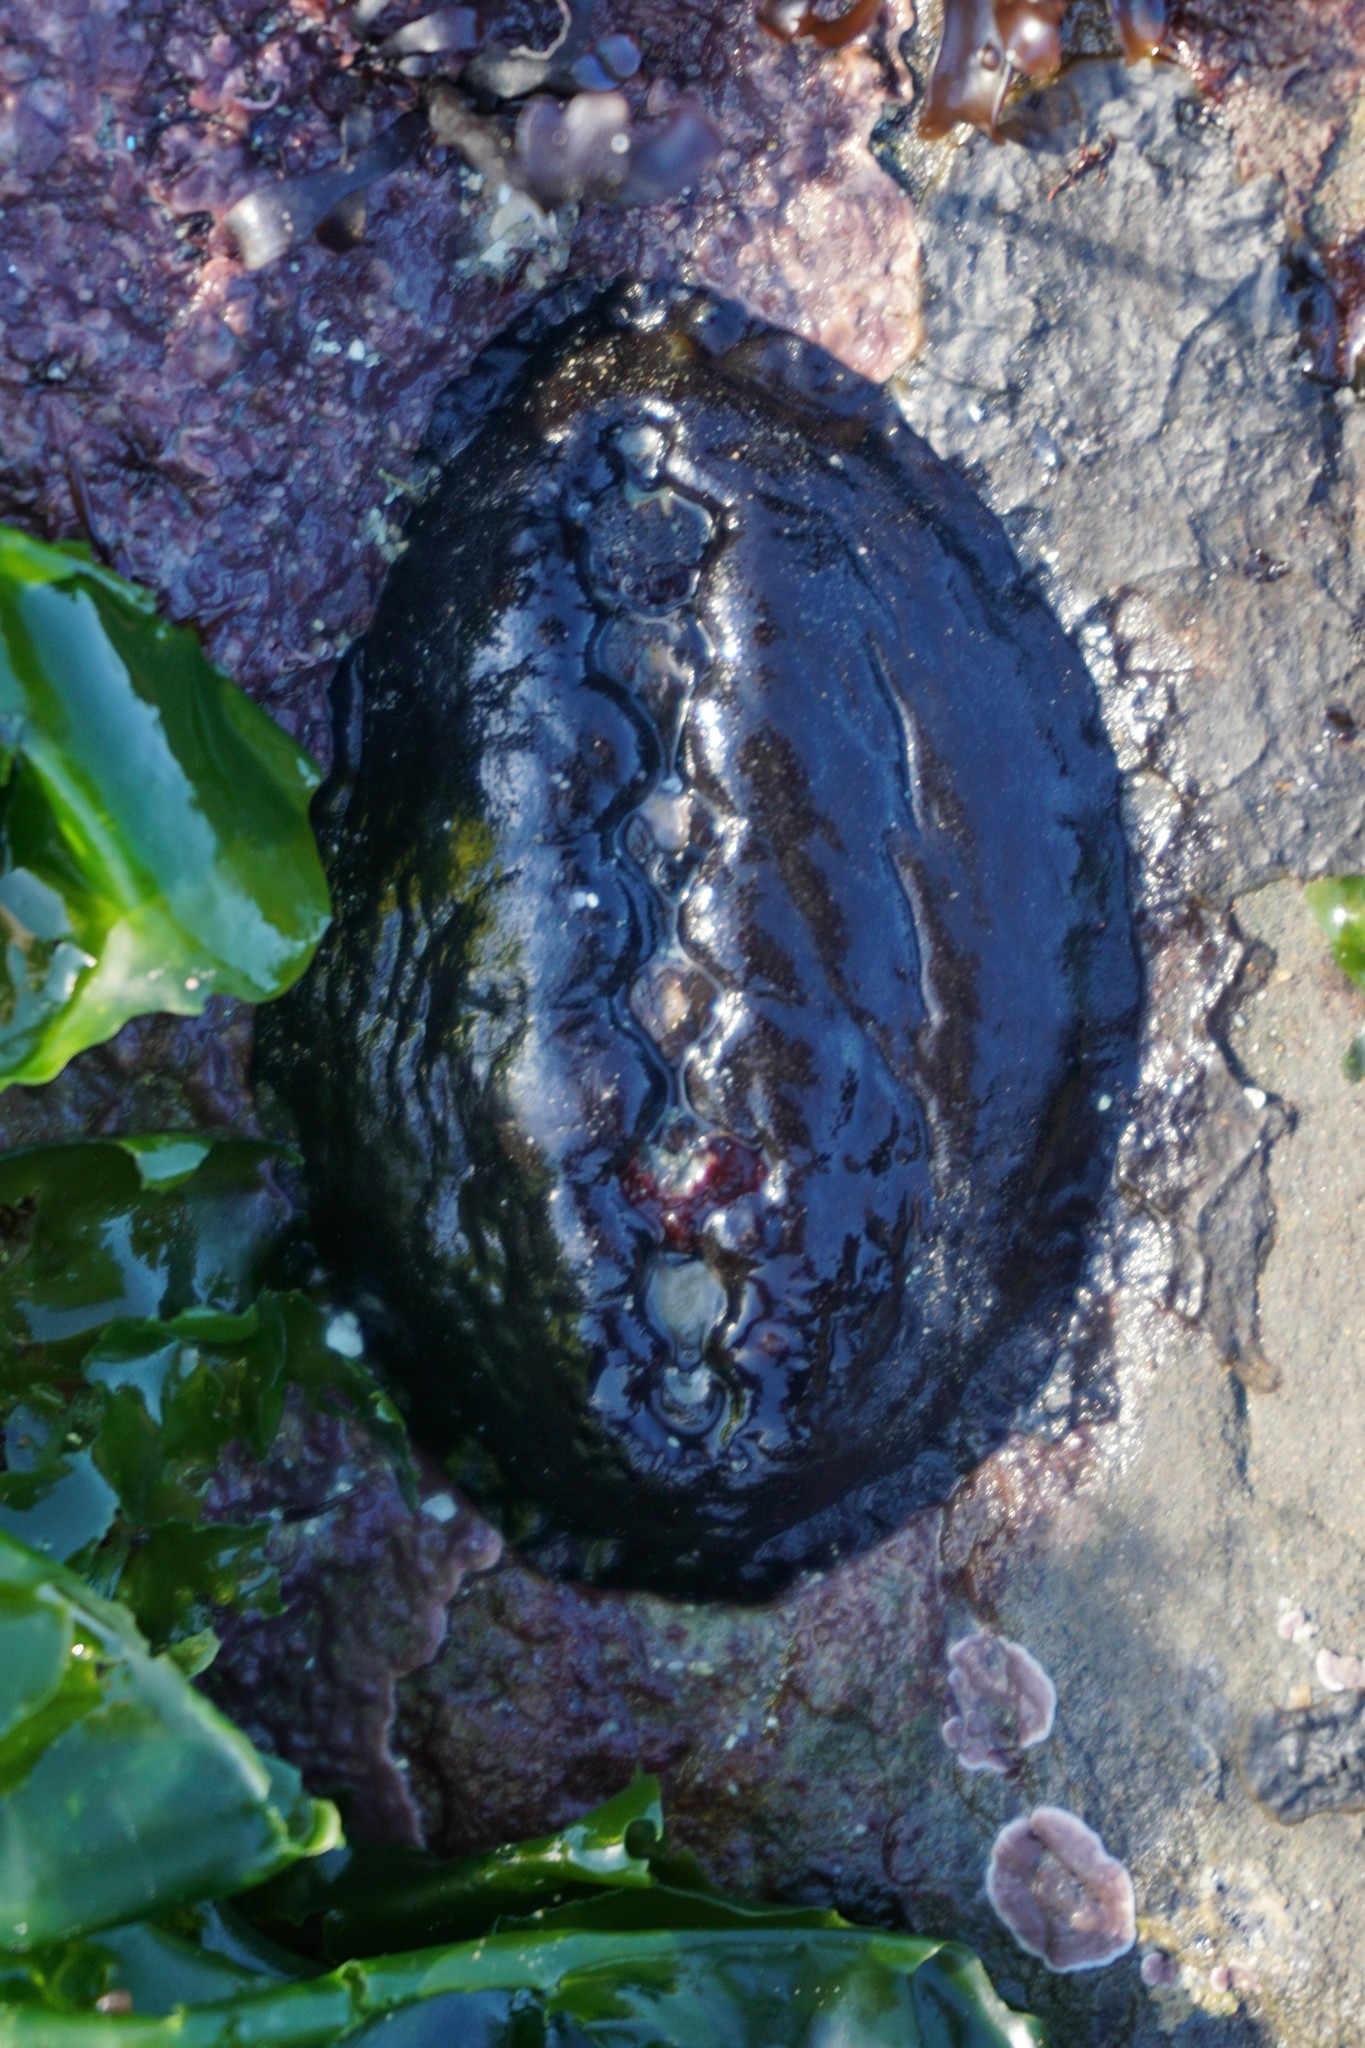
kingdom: Animalia
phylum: Mollusca
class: Polyplacophora
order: Chitonida
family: Mopaliidae
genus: Katharina
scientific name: Katharina tunicata
